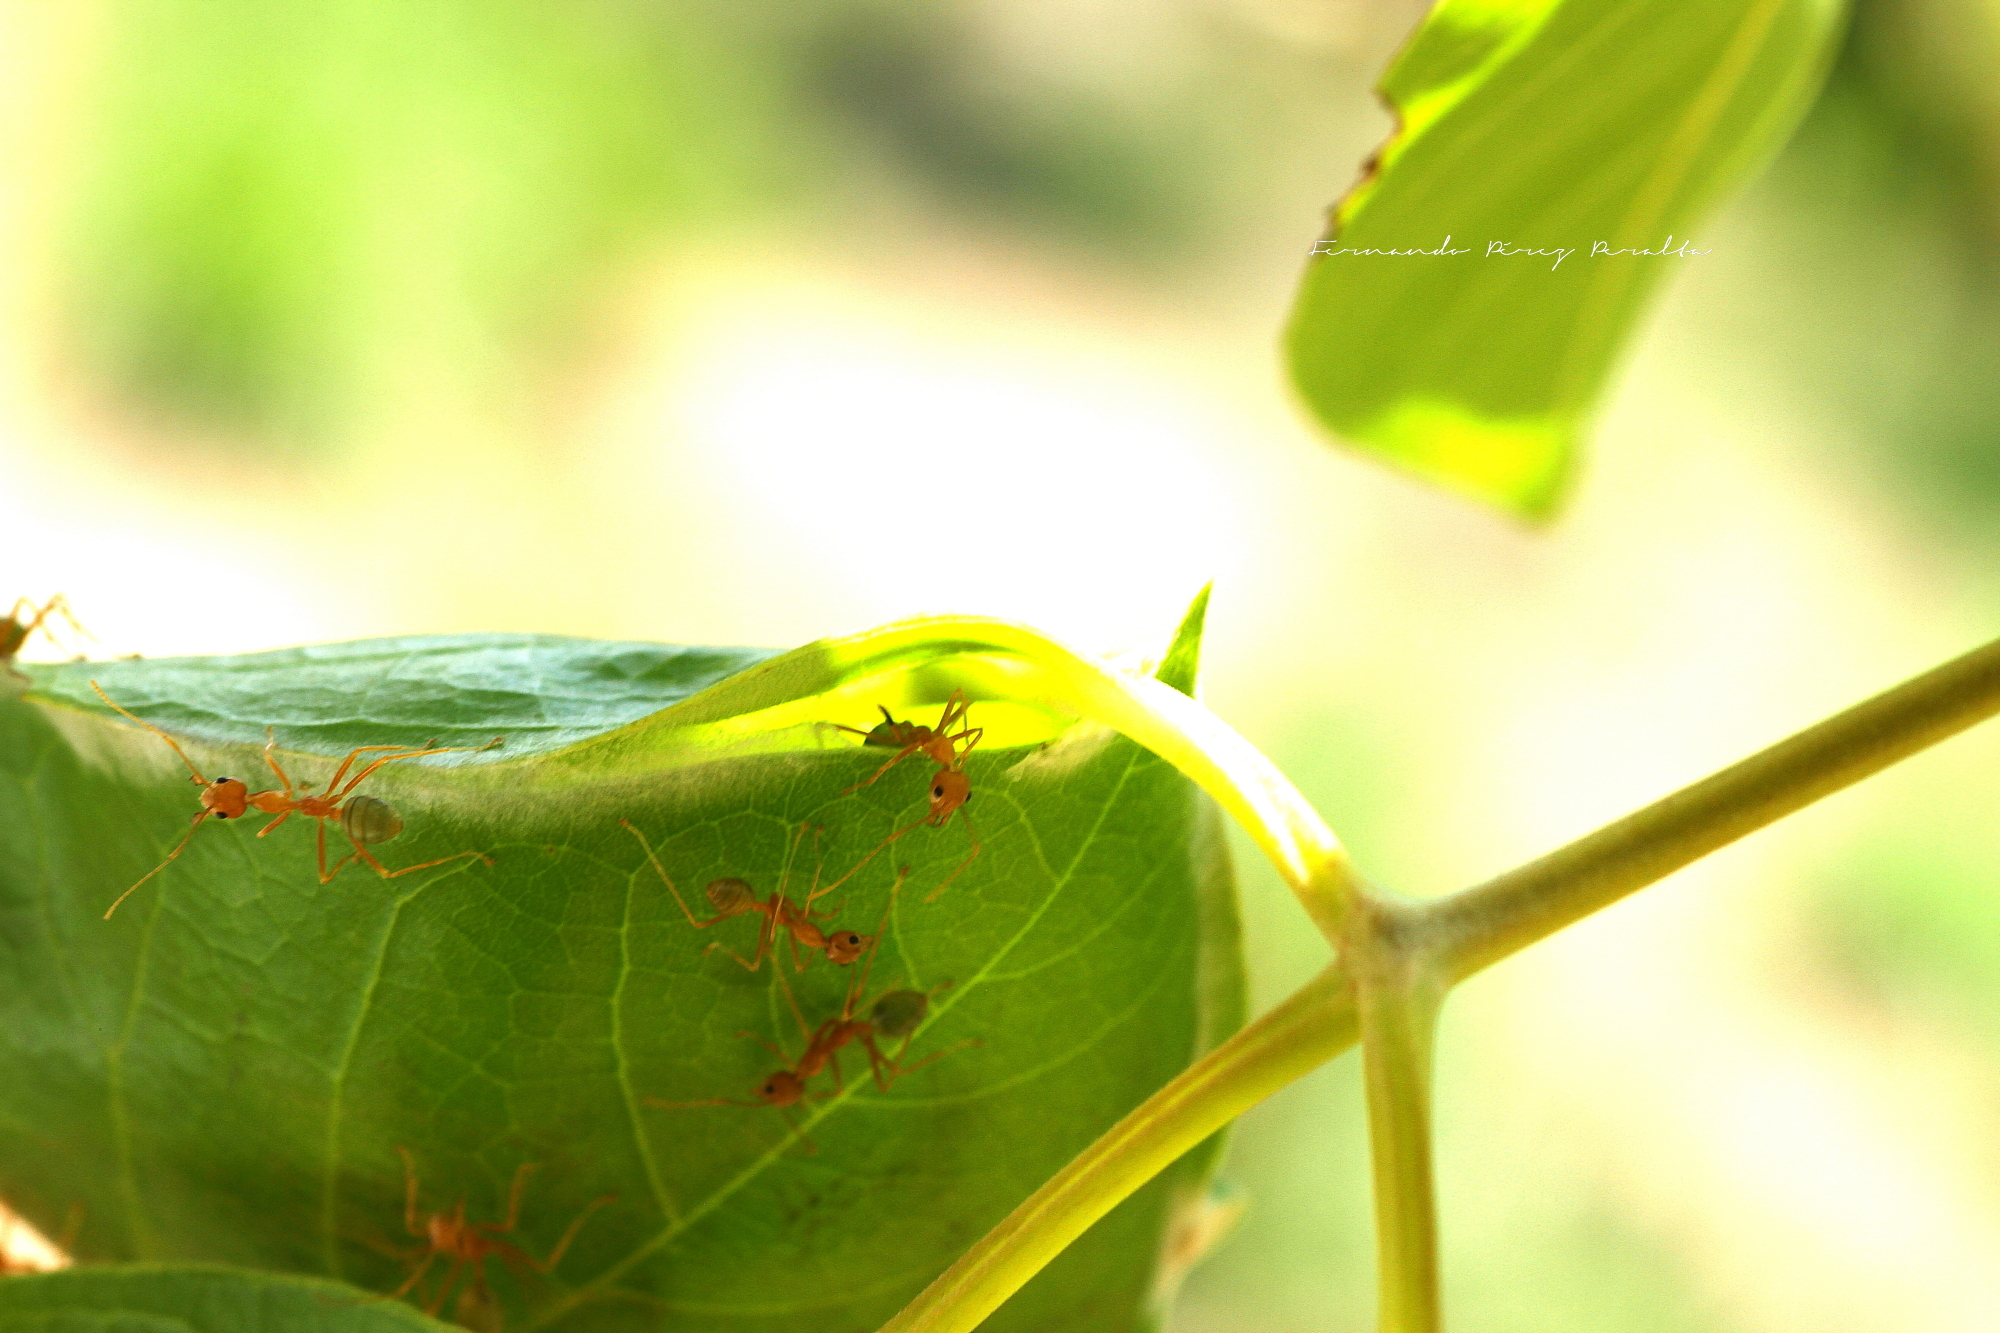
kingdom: Animalia
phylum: Arthropoda
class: Insecta
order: Hymenoptera
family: Formicidae
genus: Oecophylla
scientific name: Oecophylla smaragdina
